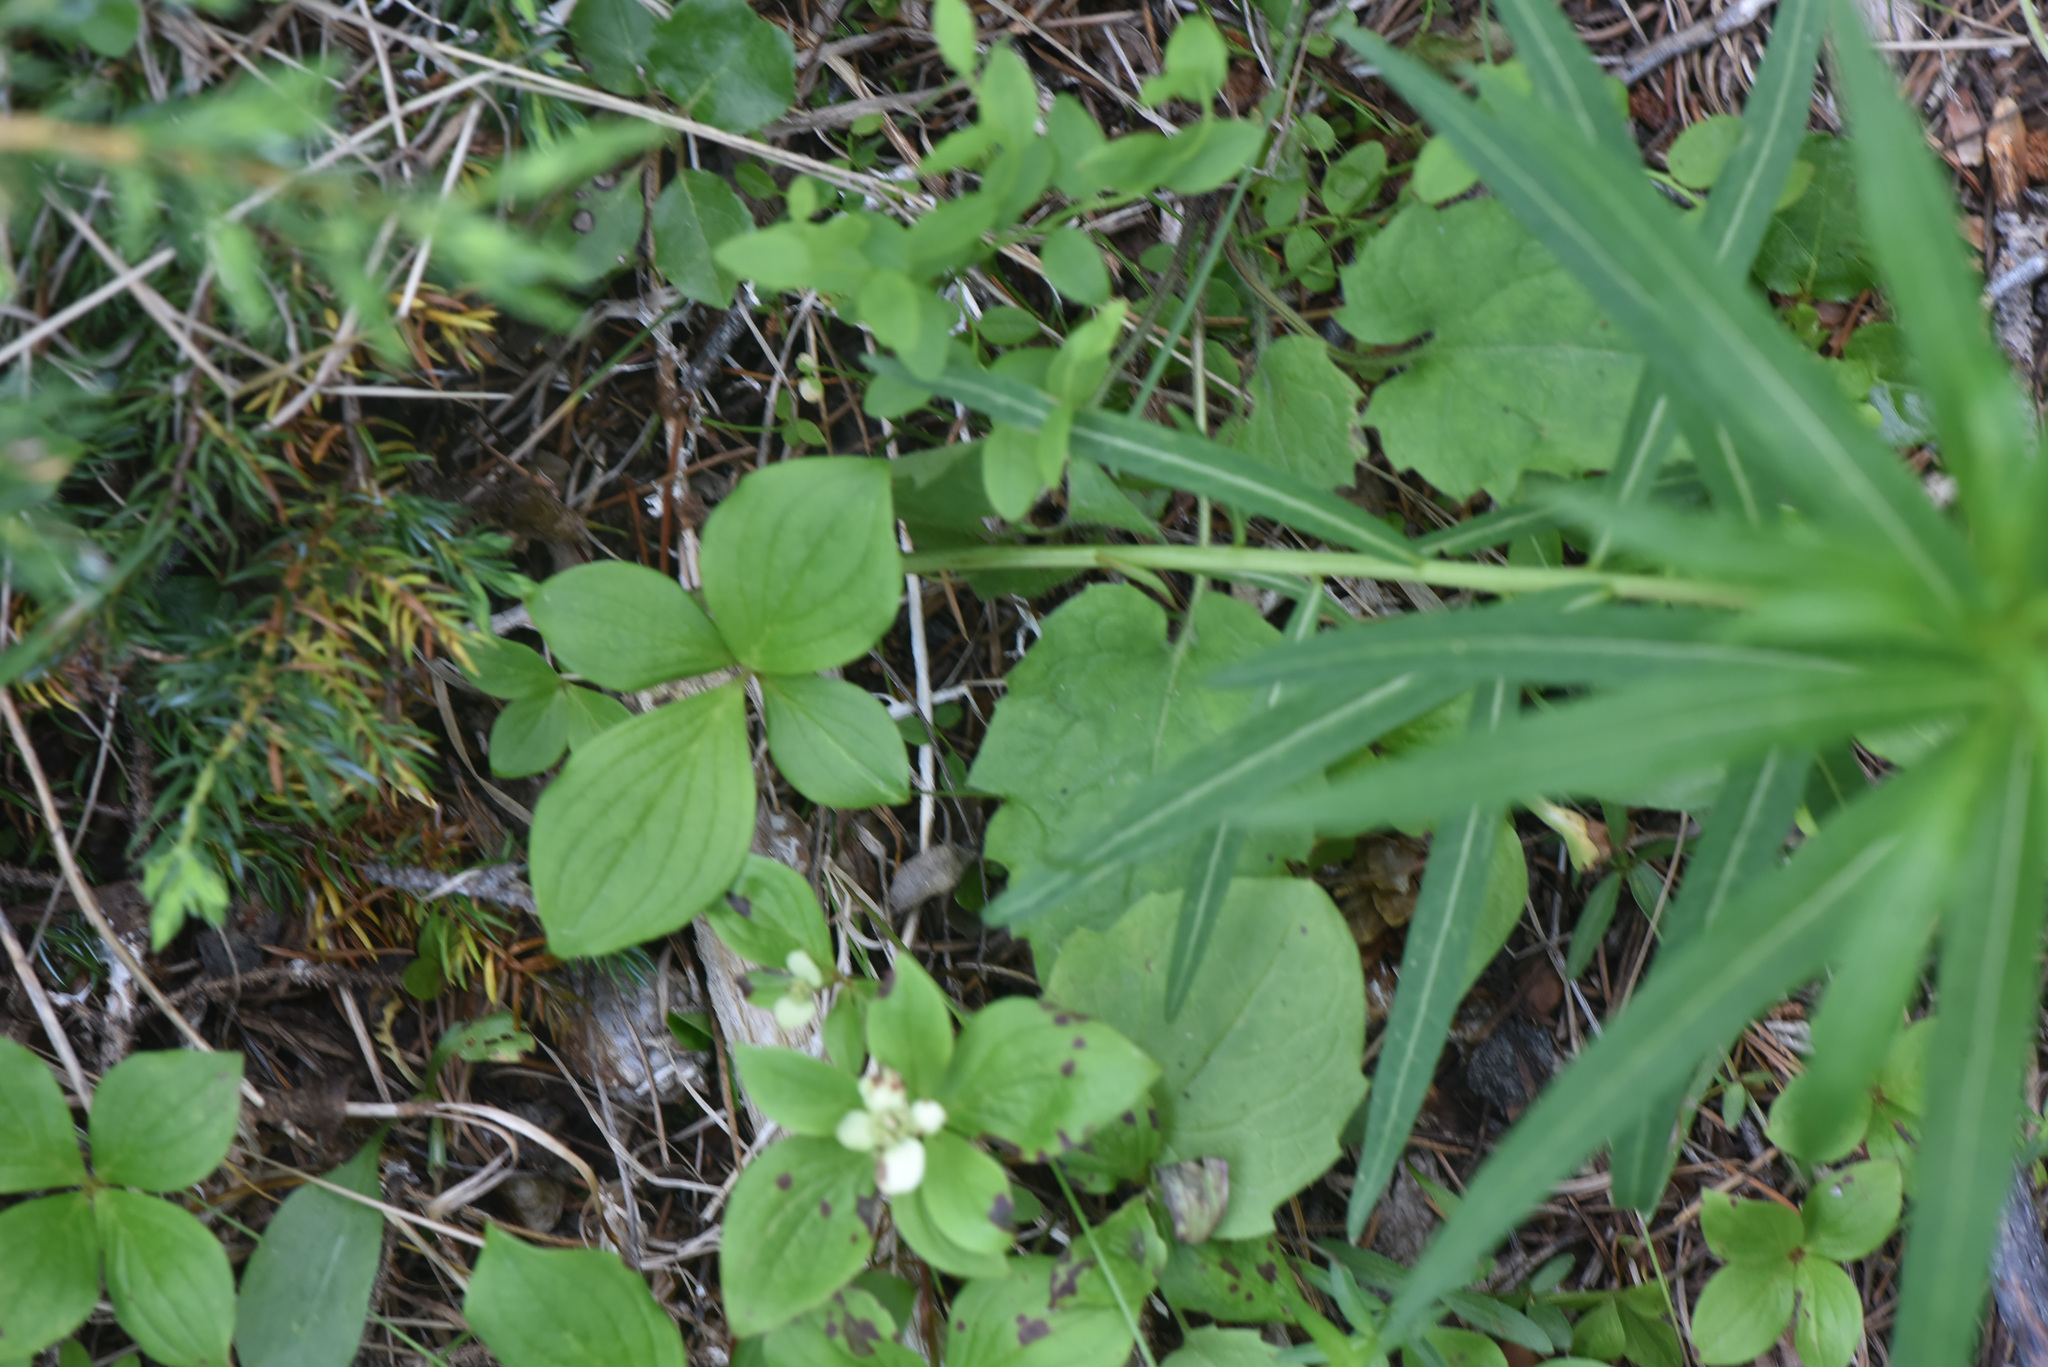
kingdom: Plantae
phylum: Tracheophyta
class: Magnoliopsida
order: Myrtales
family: Onagraceae
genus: Chamaenerion
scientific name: Chamaenerion angustifolium
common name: Fireweed
